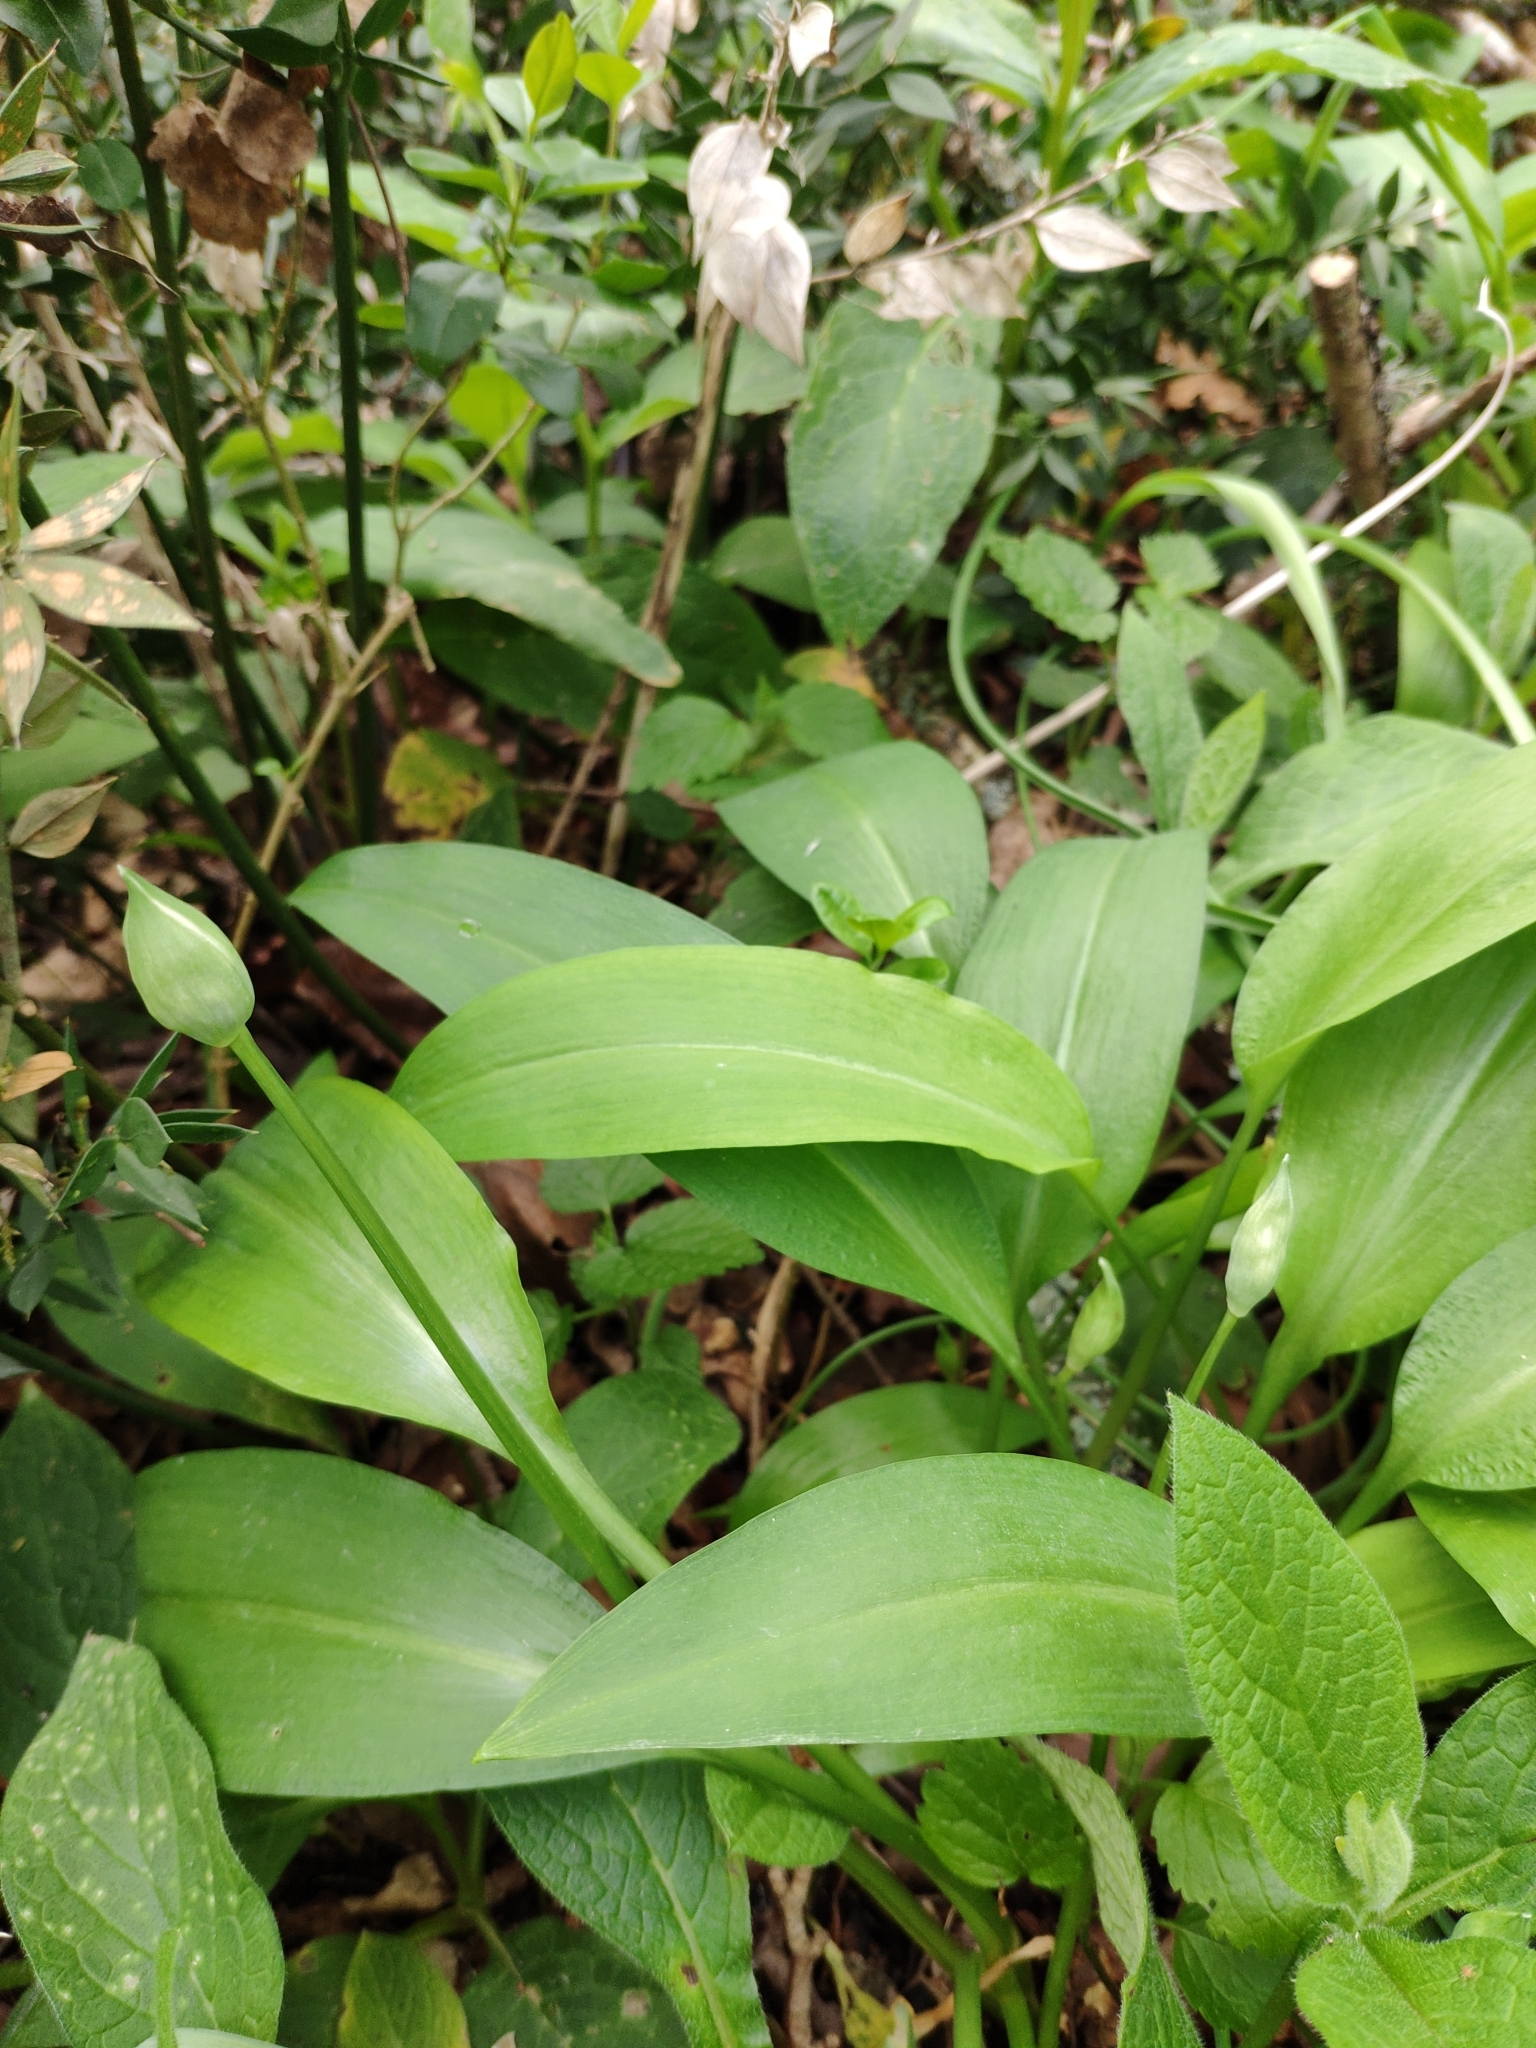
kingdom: Plantae
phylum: Tracheophyta
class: Liliopsida
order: Asparagales
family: Amaryllidaceae
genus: Allium
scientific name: Allium ursinum
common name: Ramsons
